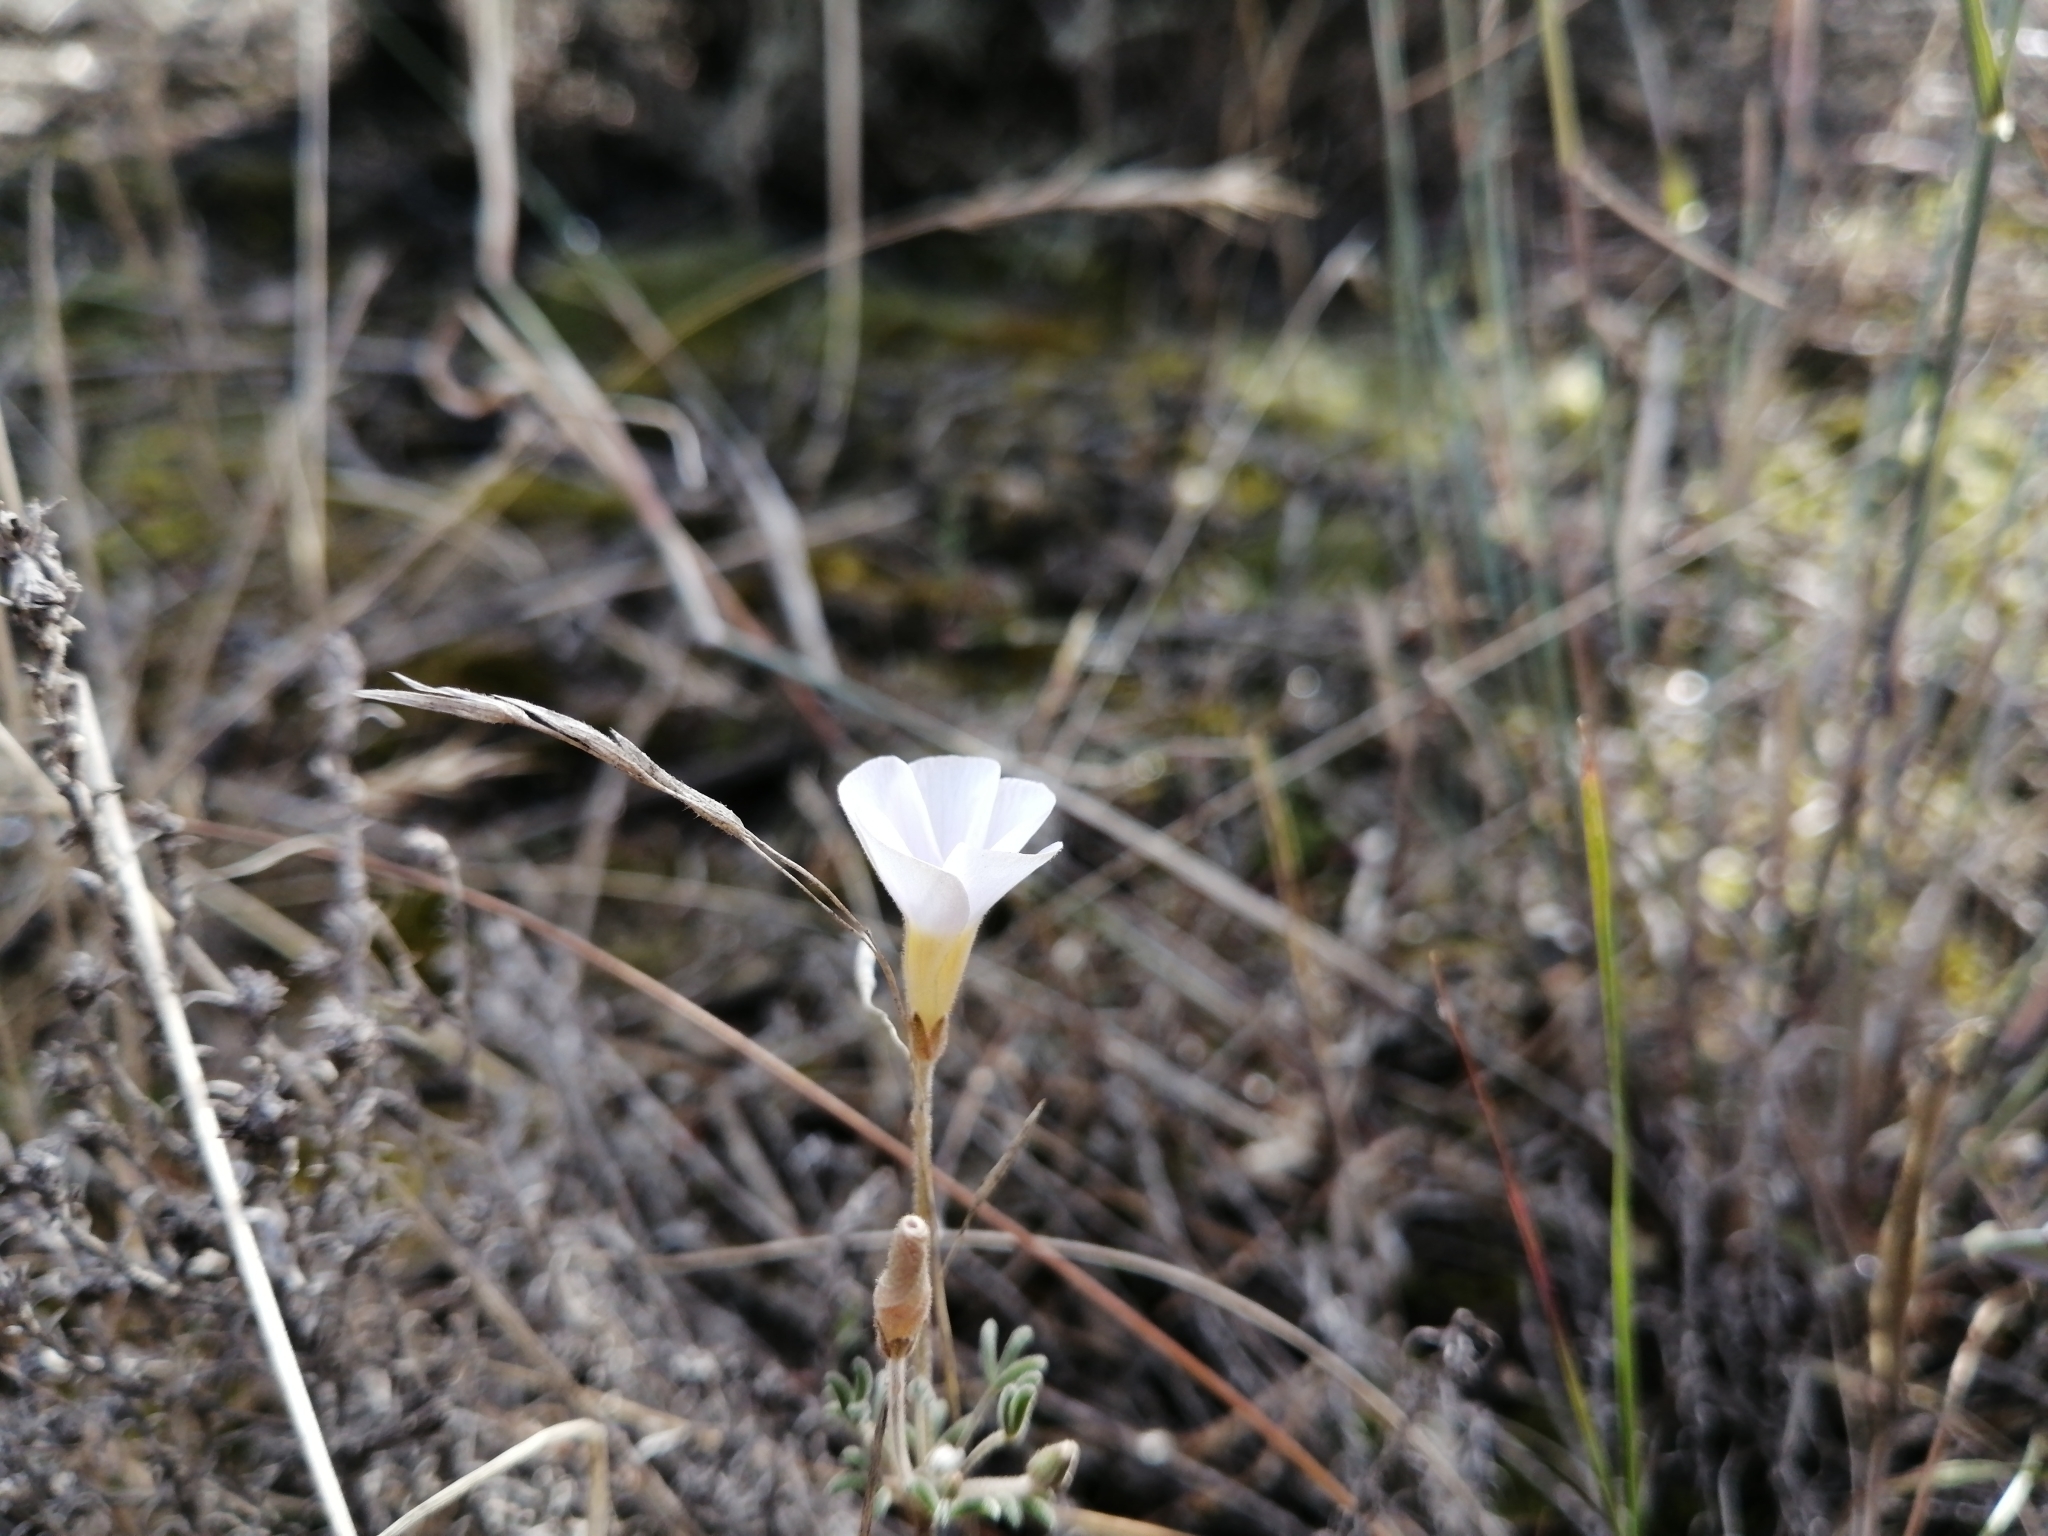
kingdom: Plantae
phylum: Tracheophyta
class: Magnoliopsida
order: Oxalidales
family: Oxalidaceae
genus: Oxalis
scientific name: Oxalis ciliaris
